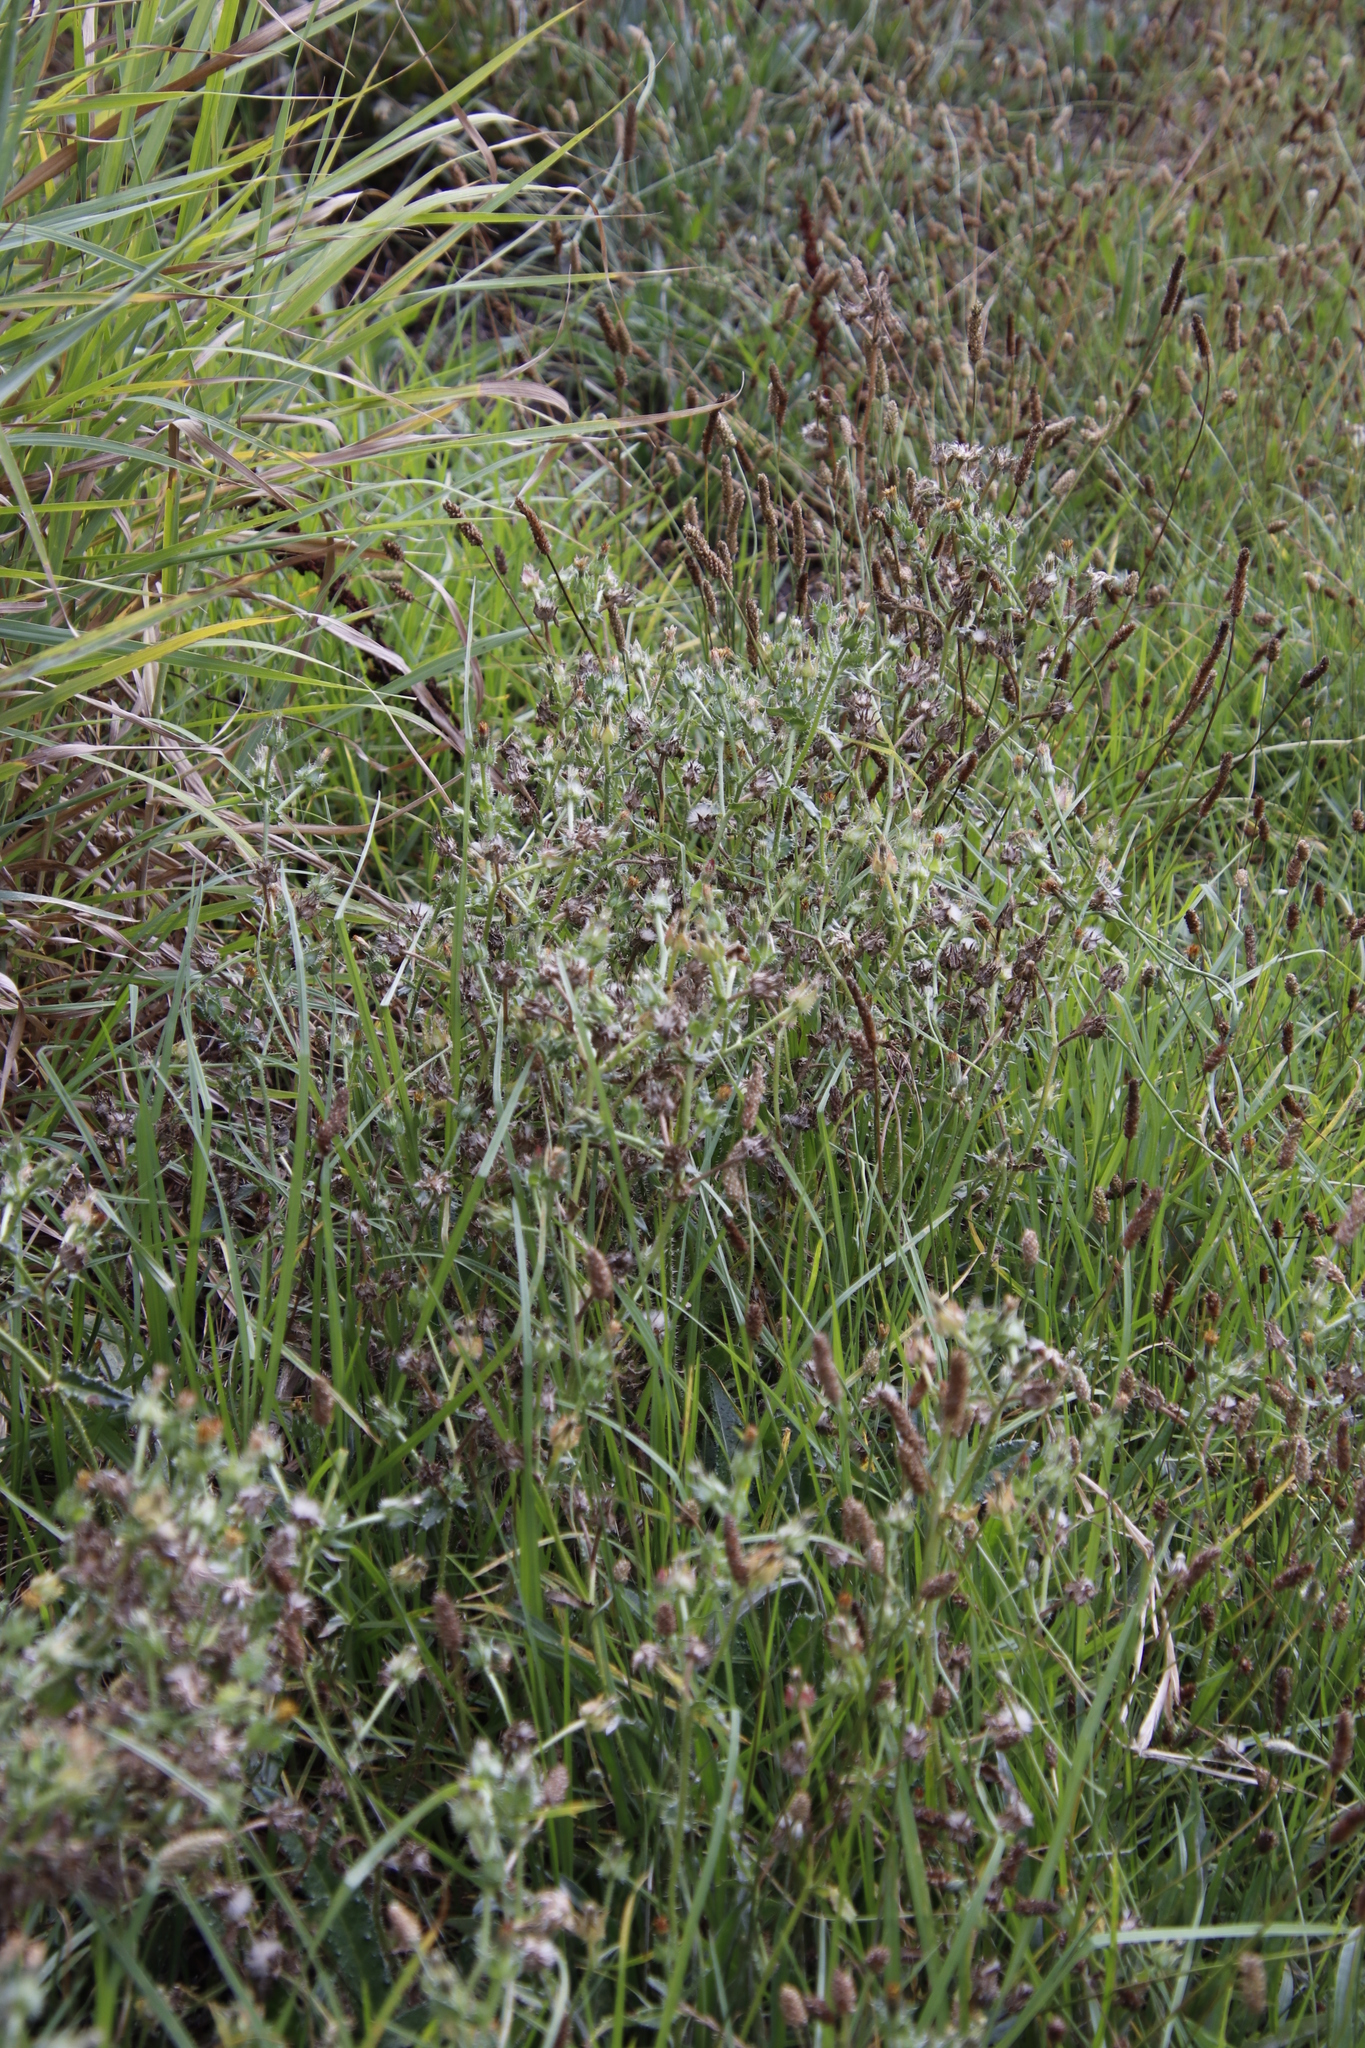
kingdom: Plantae
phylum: Tracheophyta
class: Magnoliopsida
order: Asterales
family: Asteraceae
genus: Helminthotheca
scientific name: Helminthotheca echioides
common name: Ox-tongue
